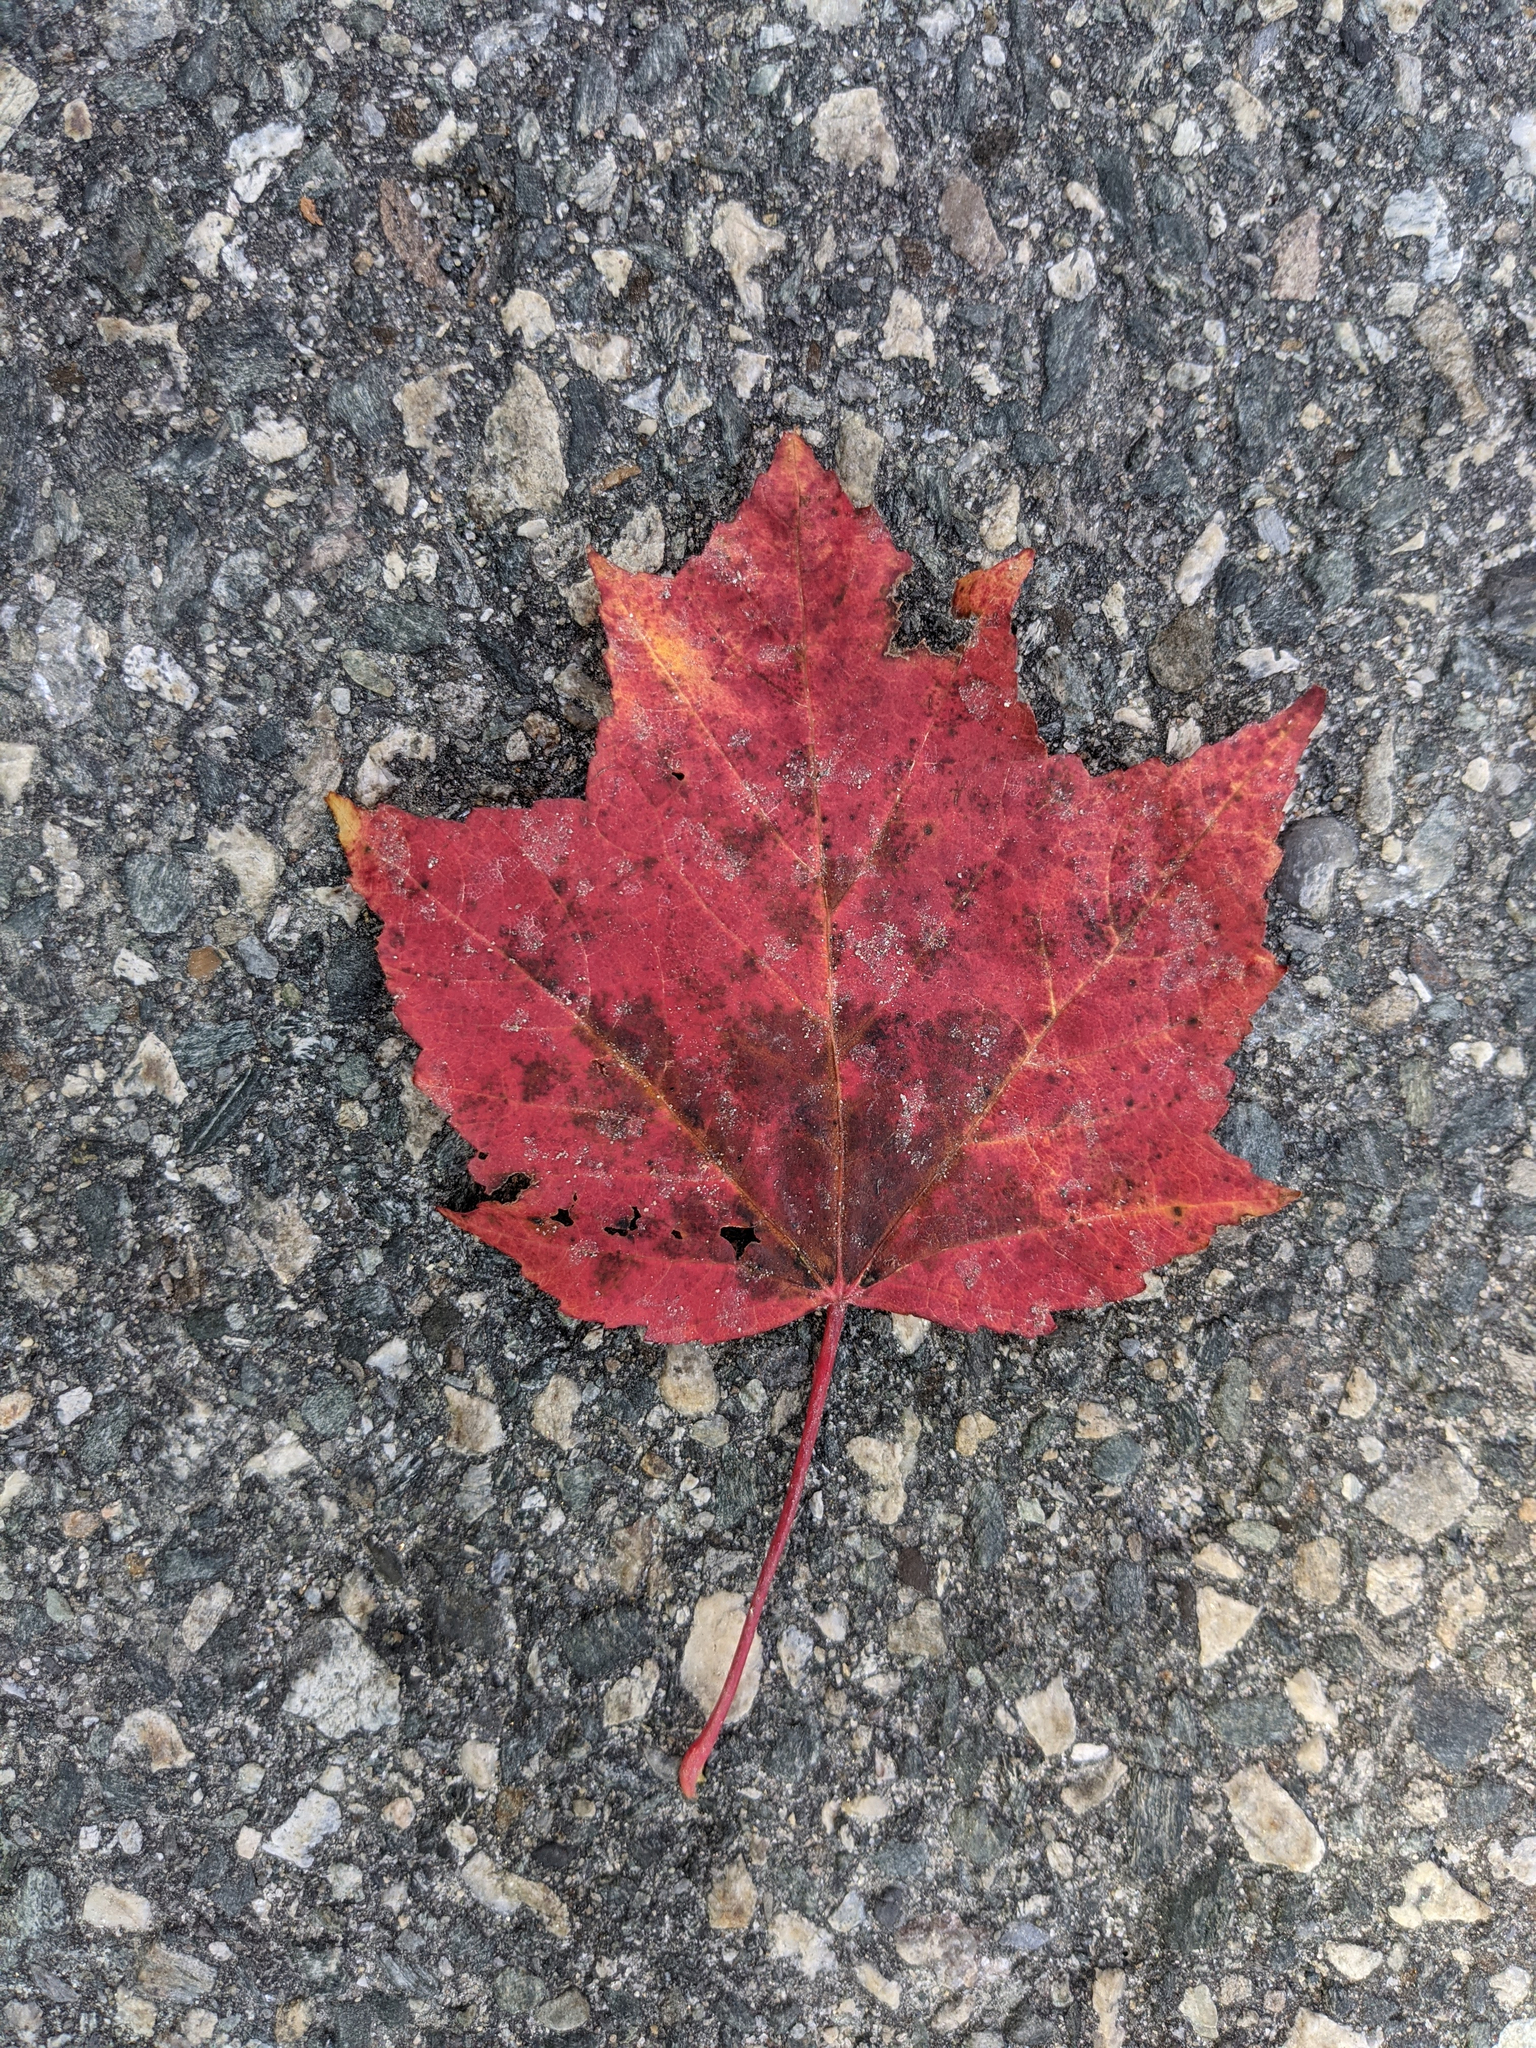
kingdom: Plantae
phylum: Tracheophyta
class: Magnoliopsida
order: Sapindales
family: Sapindaceae
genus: Acer
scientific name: Acer rubrum
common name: Red maple
